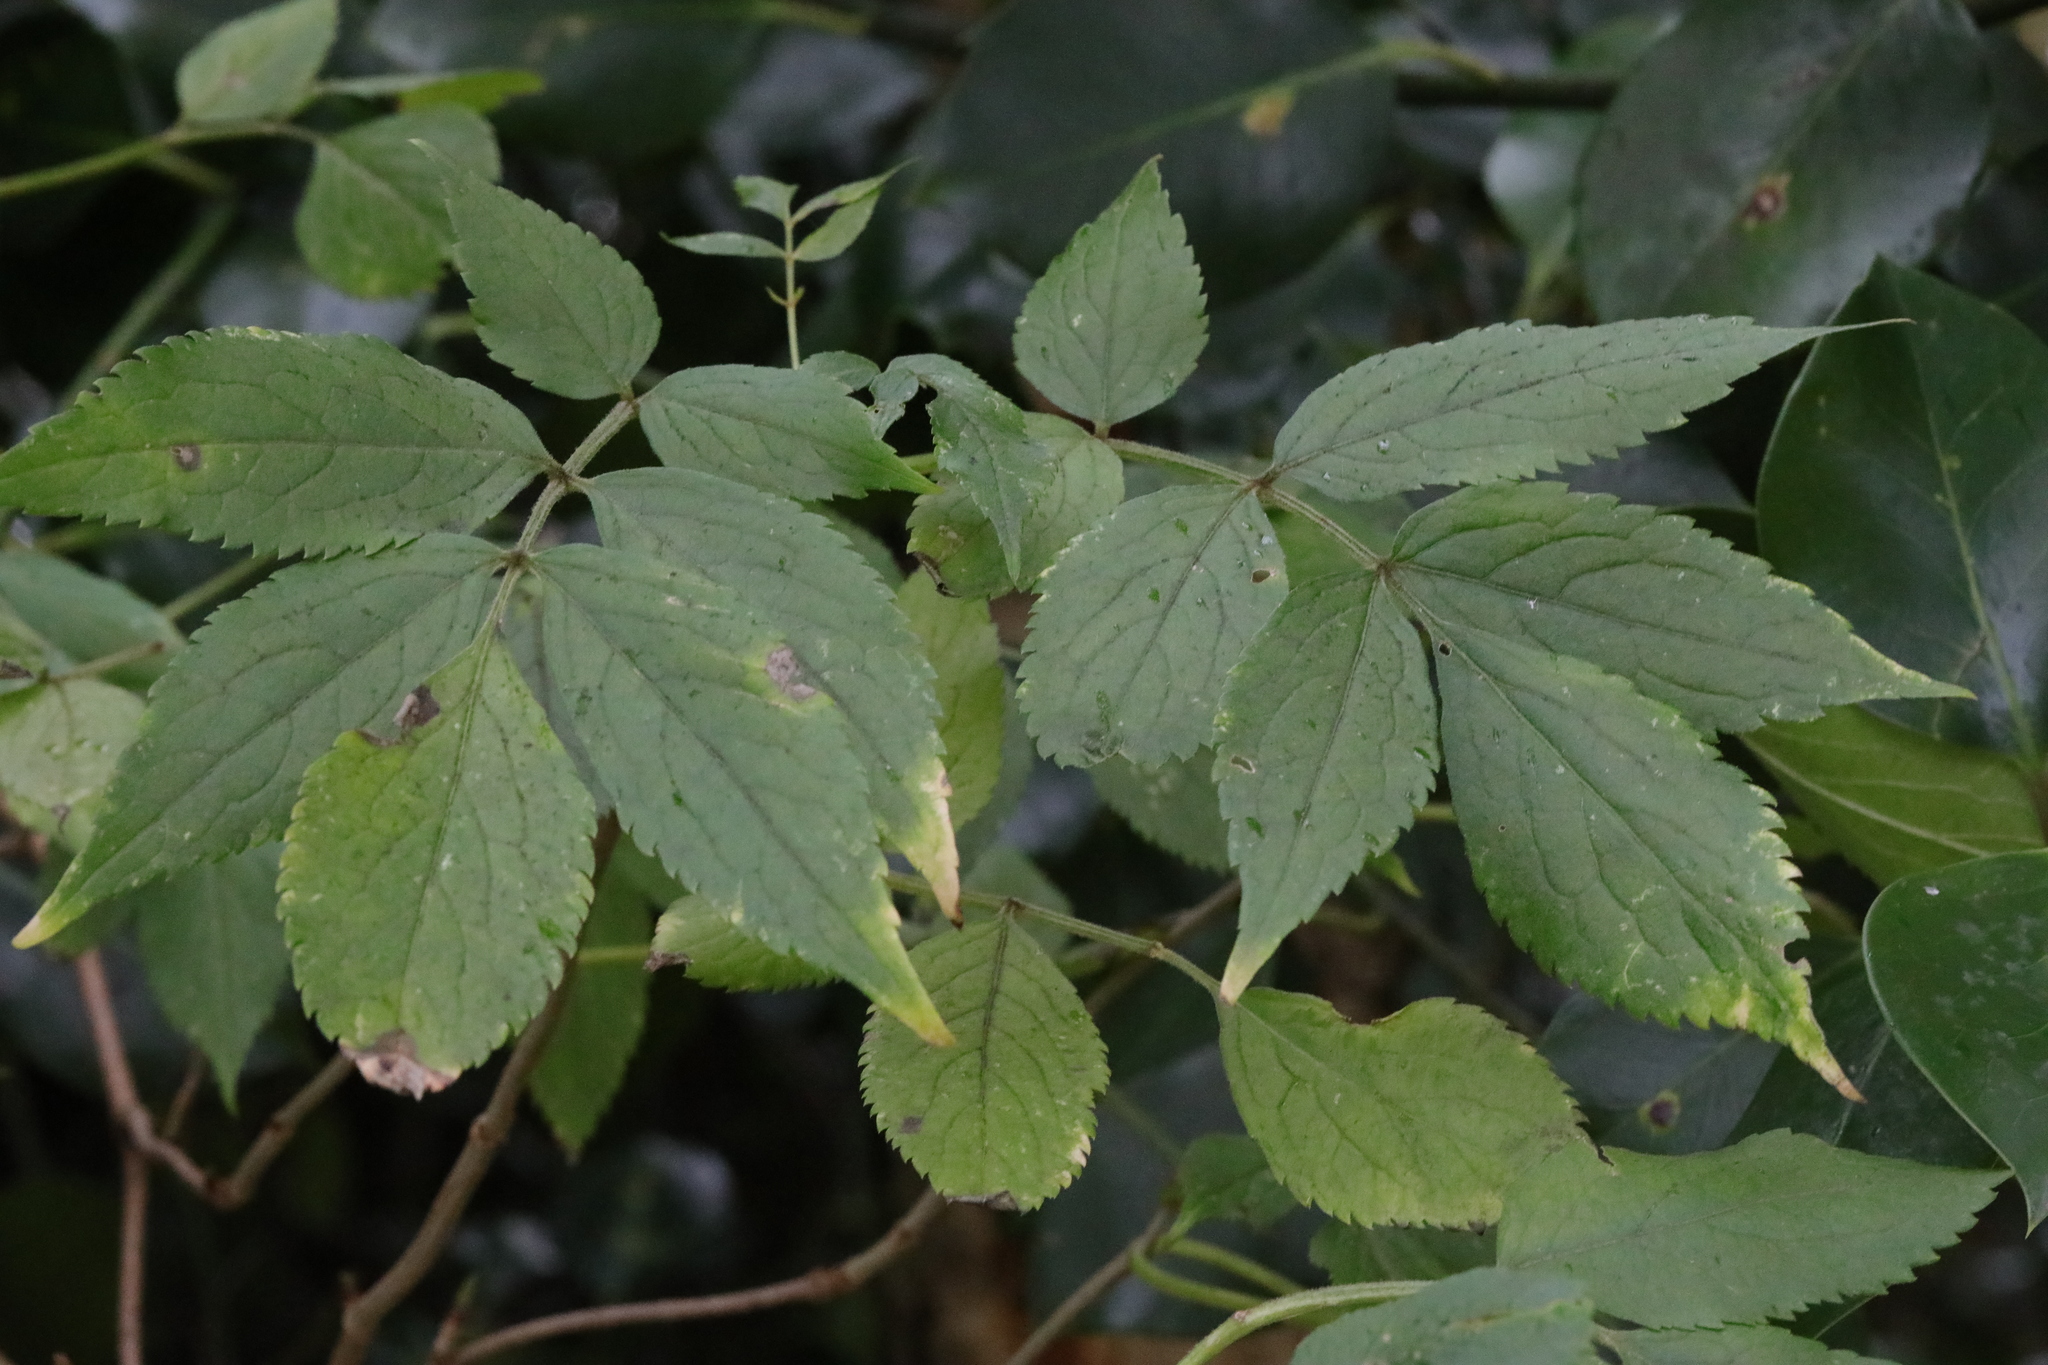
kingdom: Plantae
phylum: Tracheophyta
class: Magnoliopsida
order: Dipsacales
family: Viburnaceae
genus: Sambucus
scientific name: Sambucus nigra
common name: Elder
